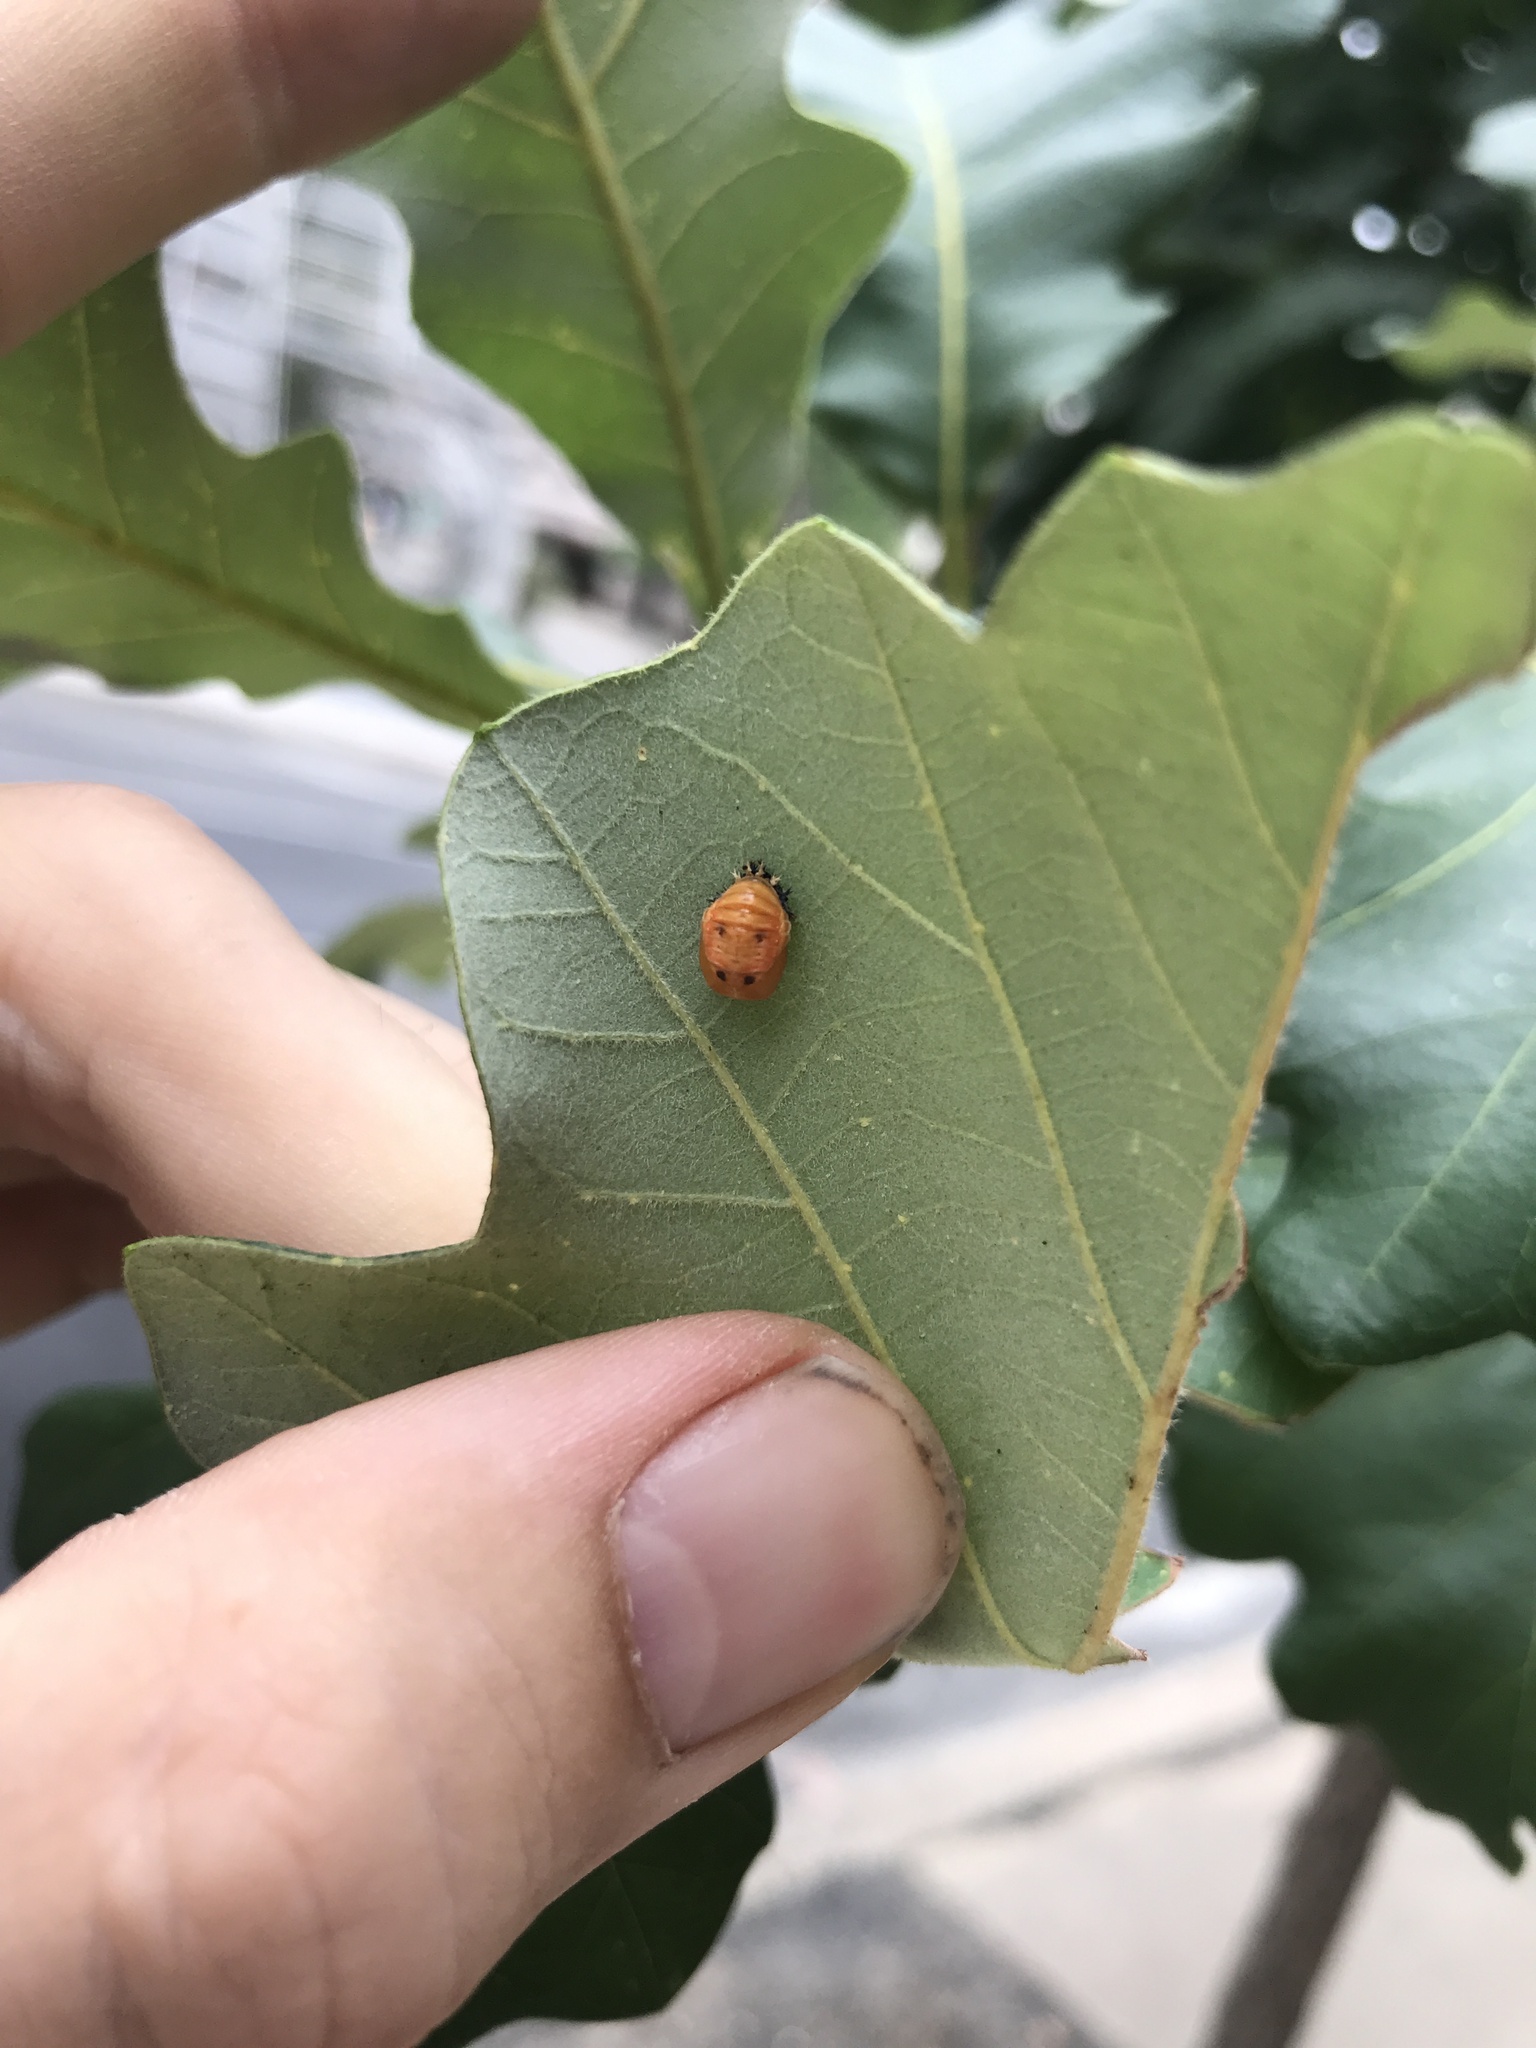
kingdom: Animalia
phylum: Arthropoda
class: Insecta
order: Coleoptera
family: Coccinellidae
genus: Harmonia
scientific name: Harmonia axyridis
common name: Harlequin ladybird
